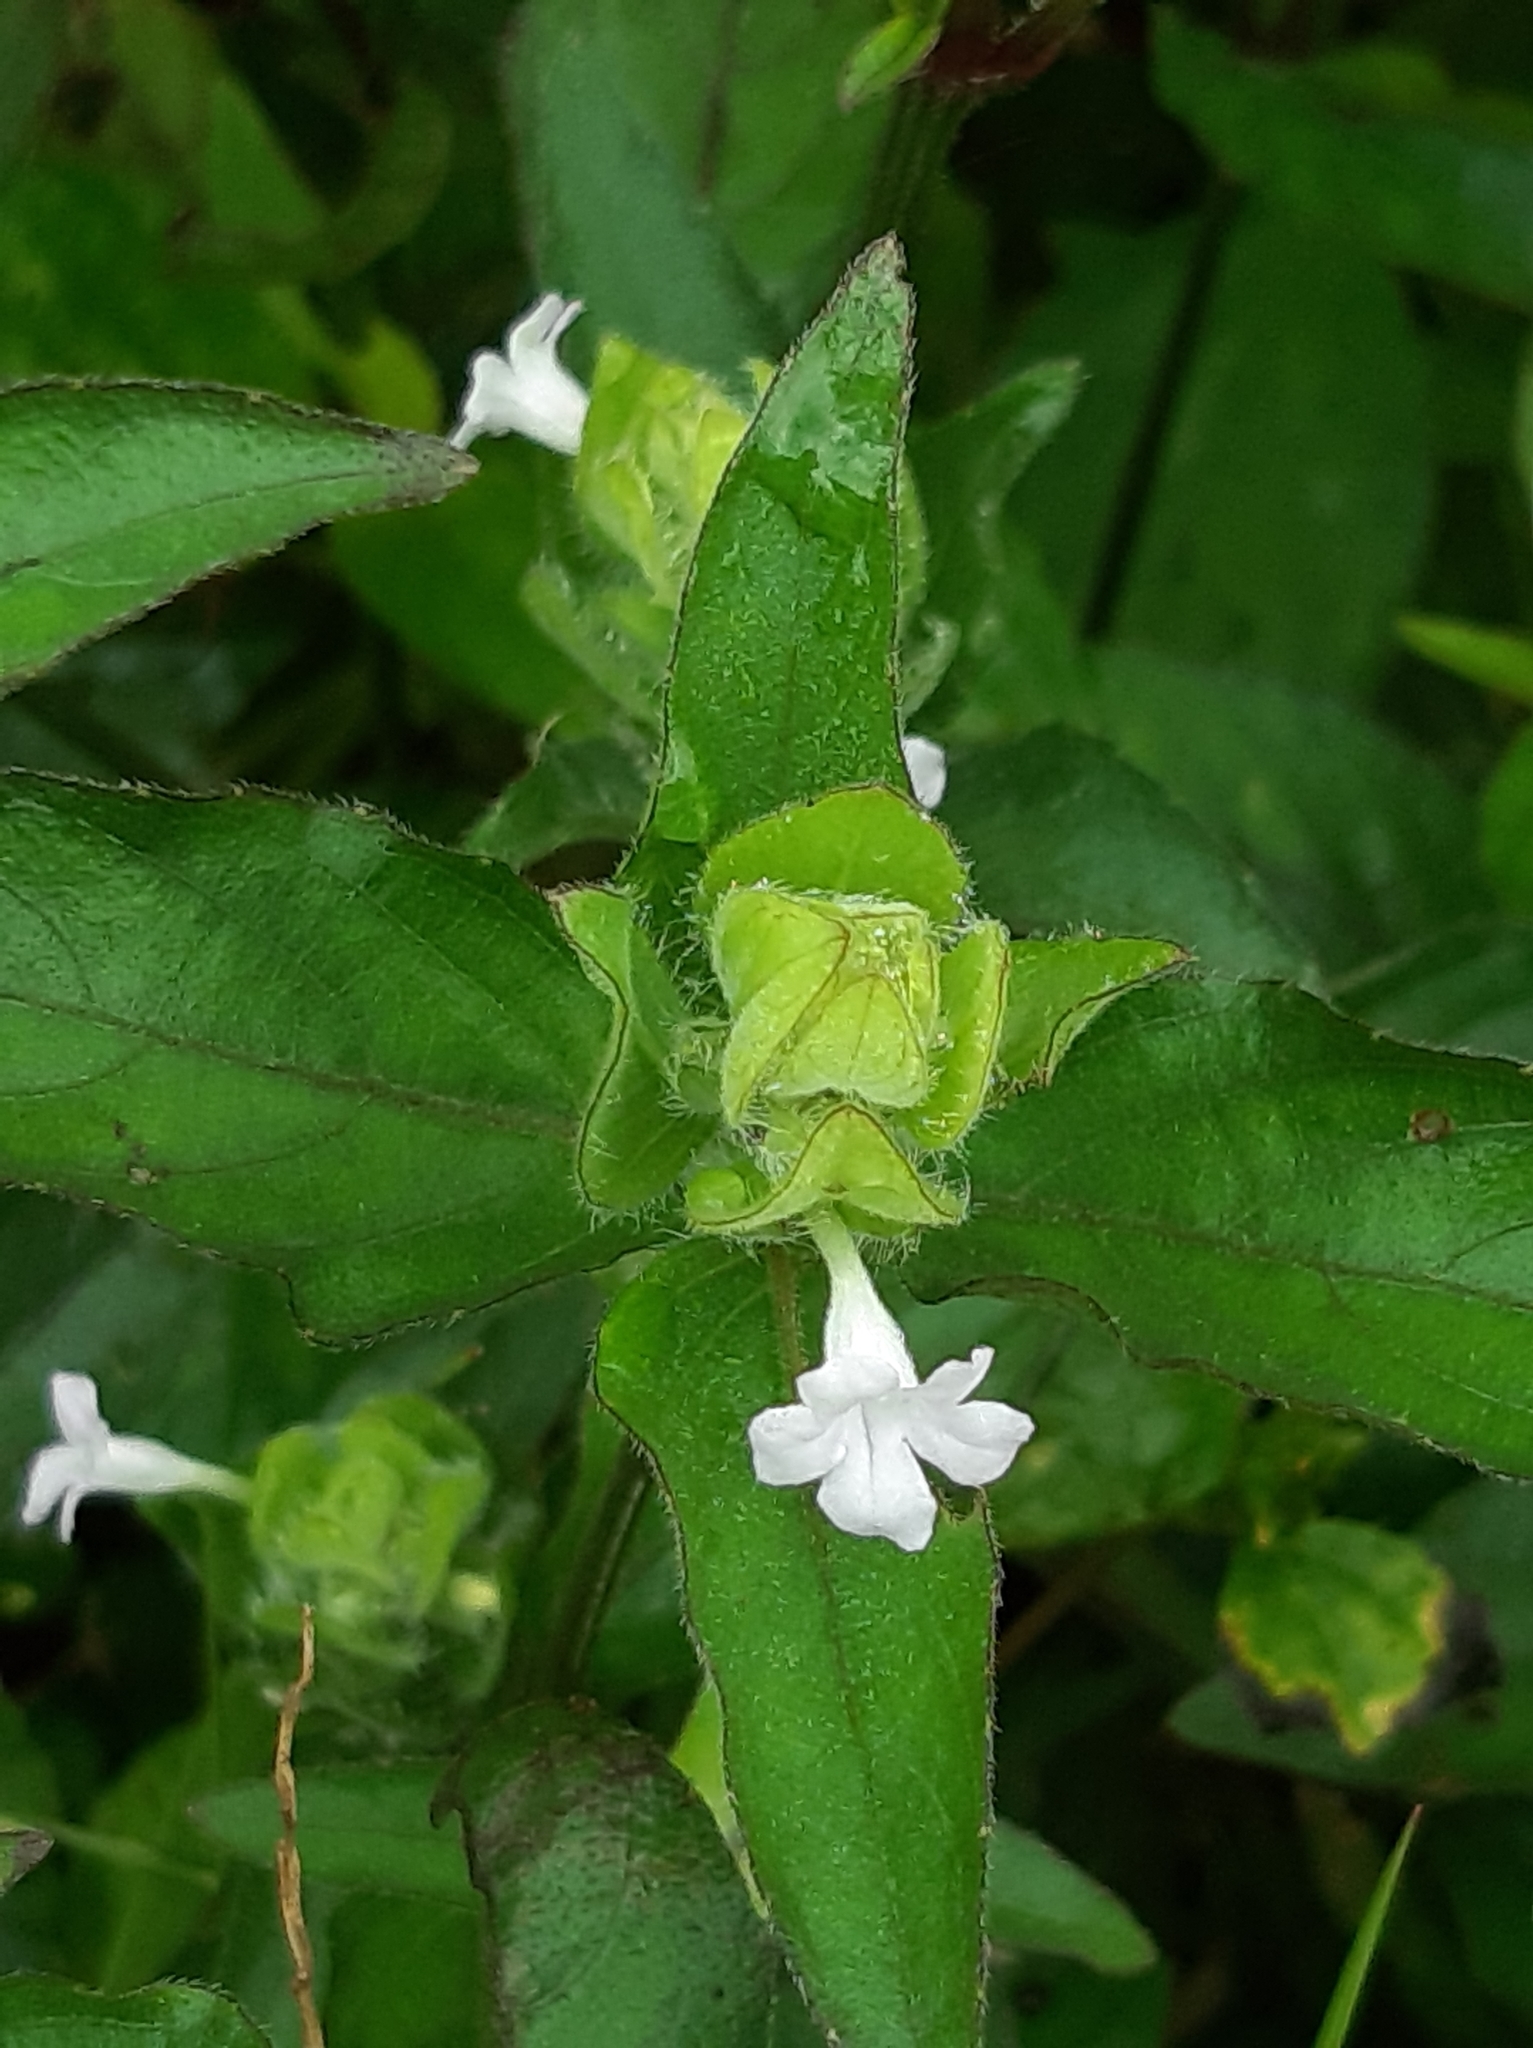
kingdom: Plantae
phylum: Tracheophyta
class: Magnoliopsida
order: Lamiales
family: Acanthaceae
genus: Ruellia
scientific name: Ruellia blechum
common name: Browne's blechum
